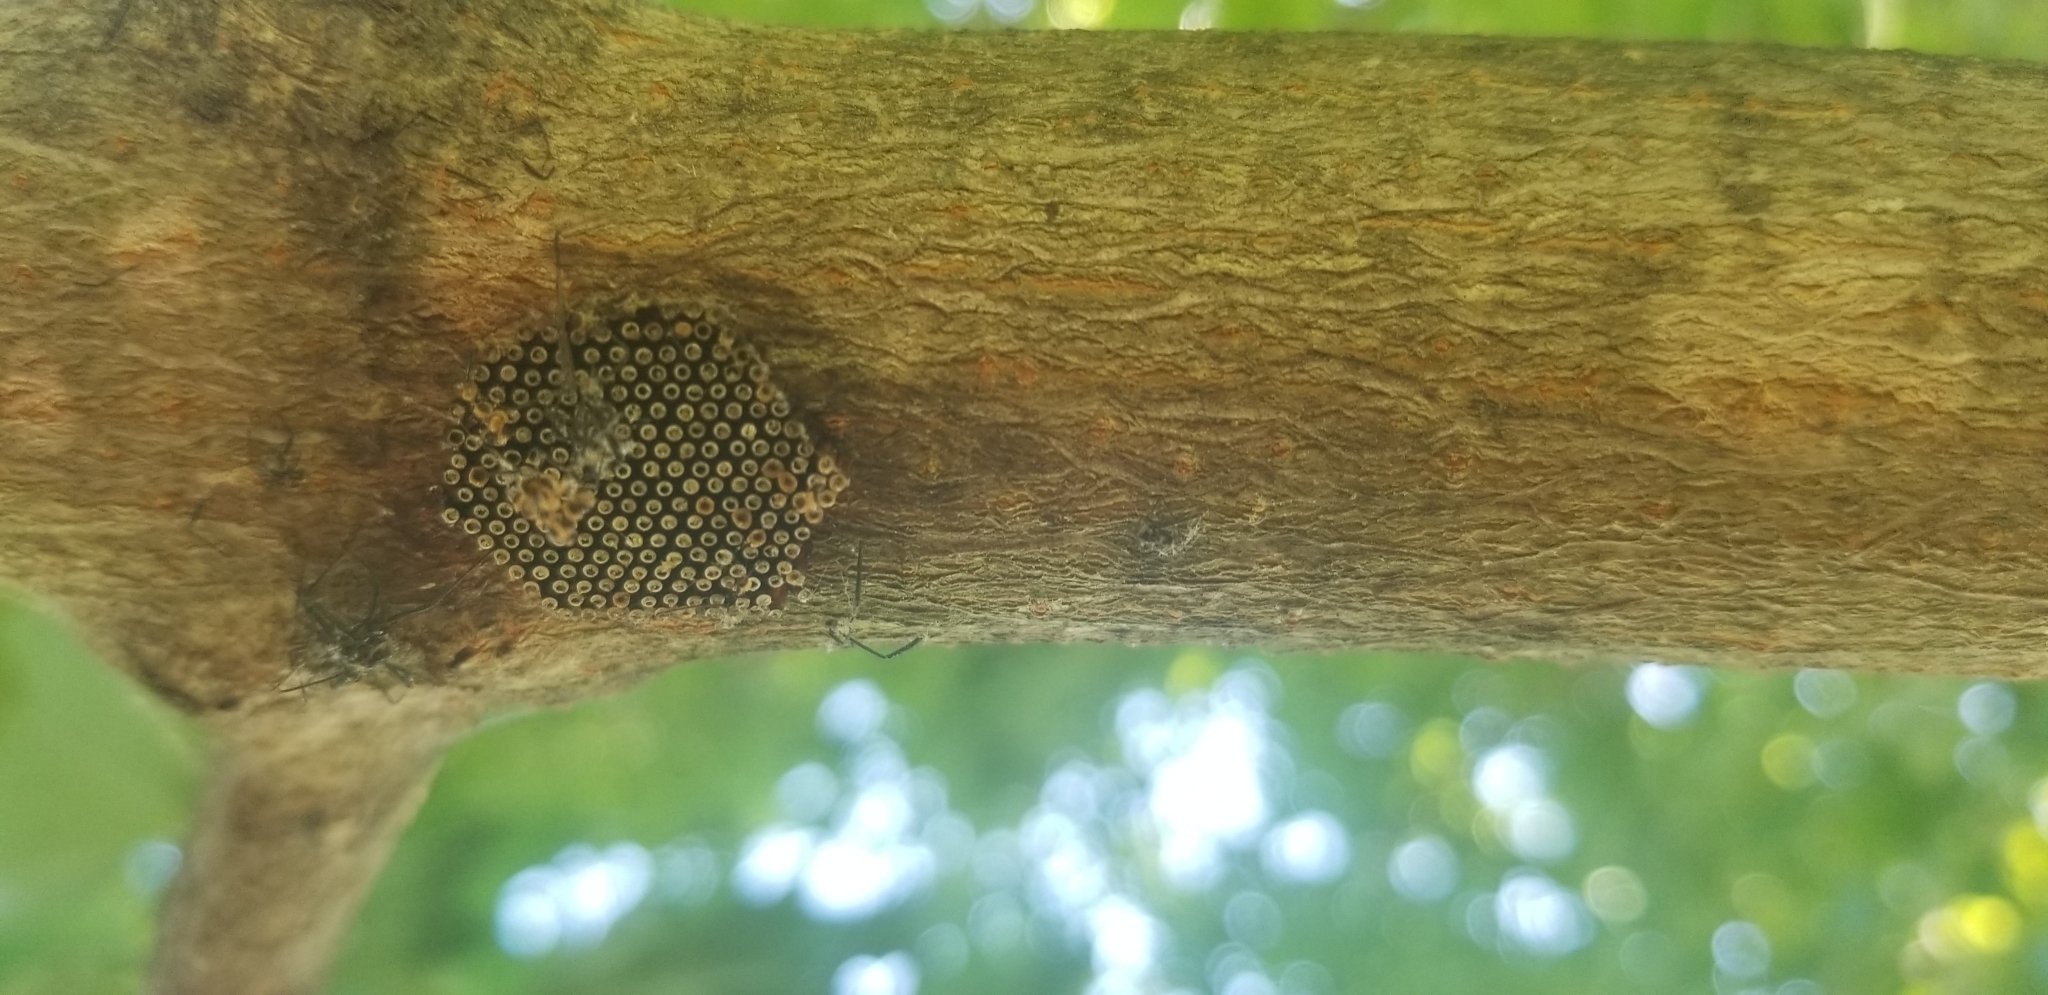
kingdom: Animalia
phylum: Arthropoda
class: Insecta
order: Hemiptera
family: Reduviidae
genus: Arilus
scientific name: Arilus cristatus
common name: North american wheel bug
